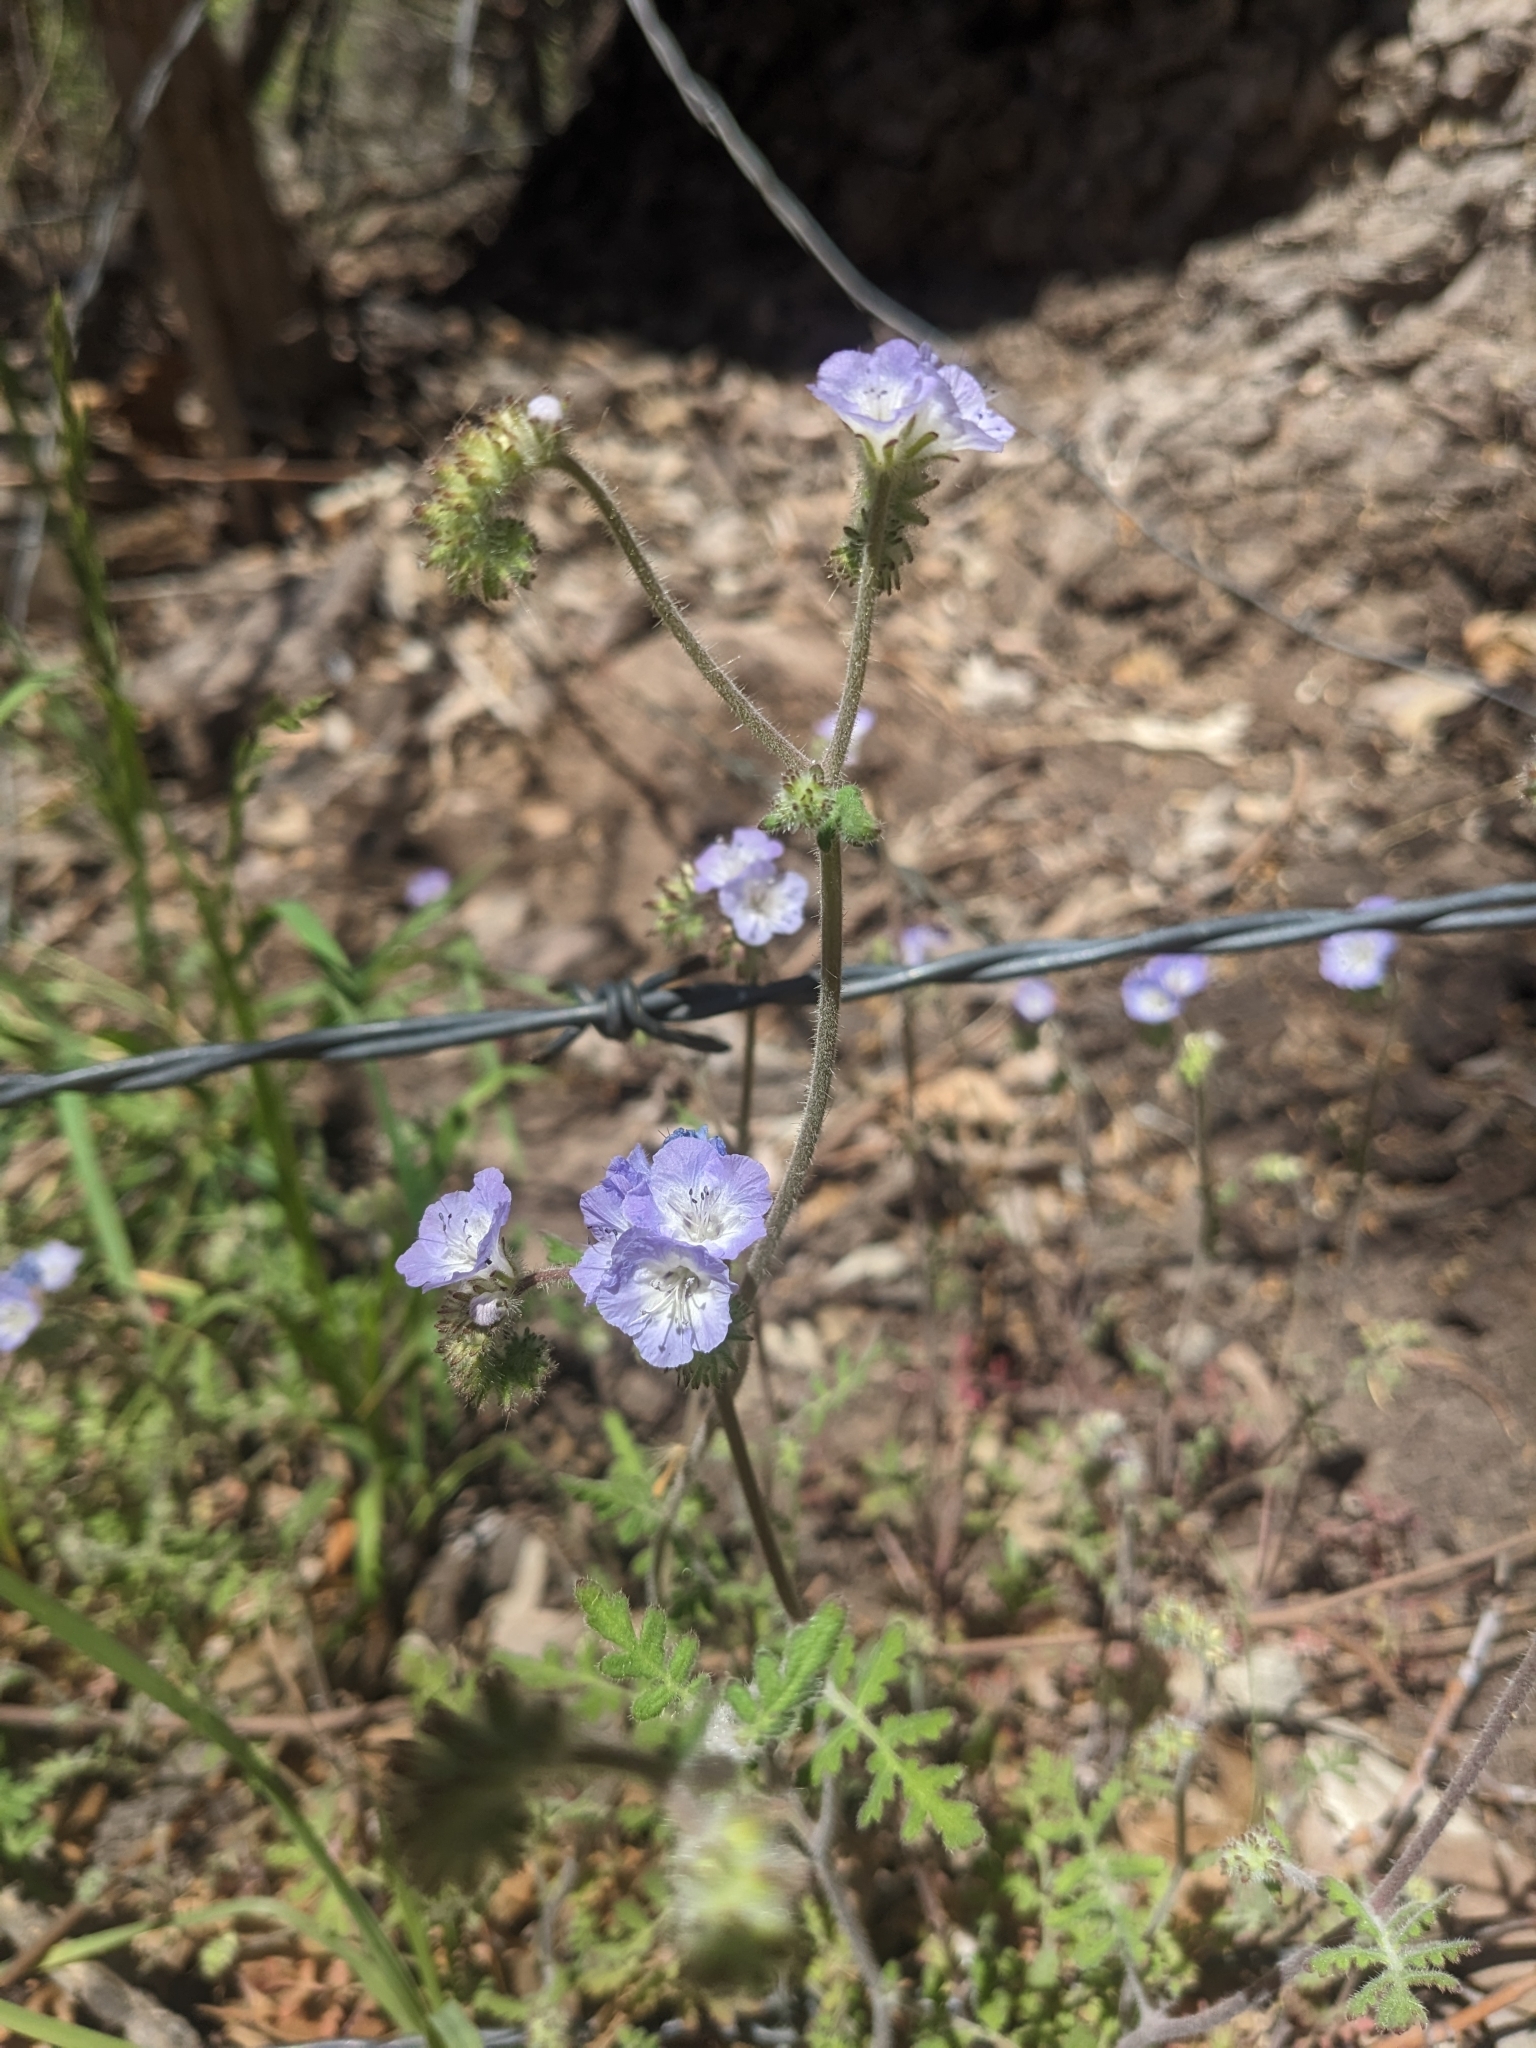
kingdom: Plantae
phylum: Tracheophyta
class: Magnoliopsida
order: Boraginales
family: Hydrophyllaceae
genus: Phacelia
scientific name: Phacelia gentryi
